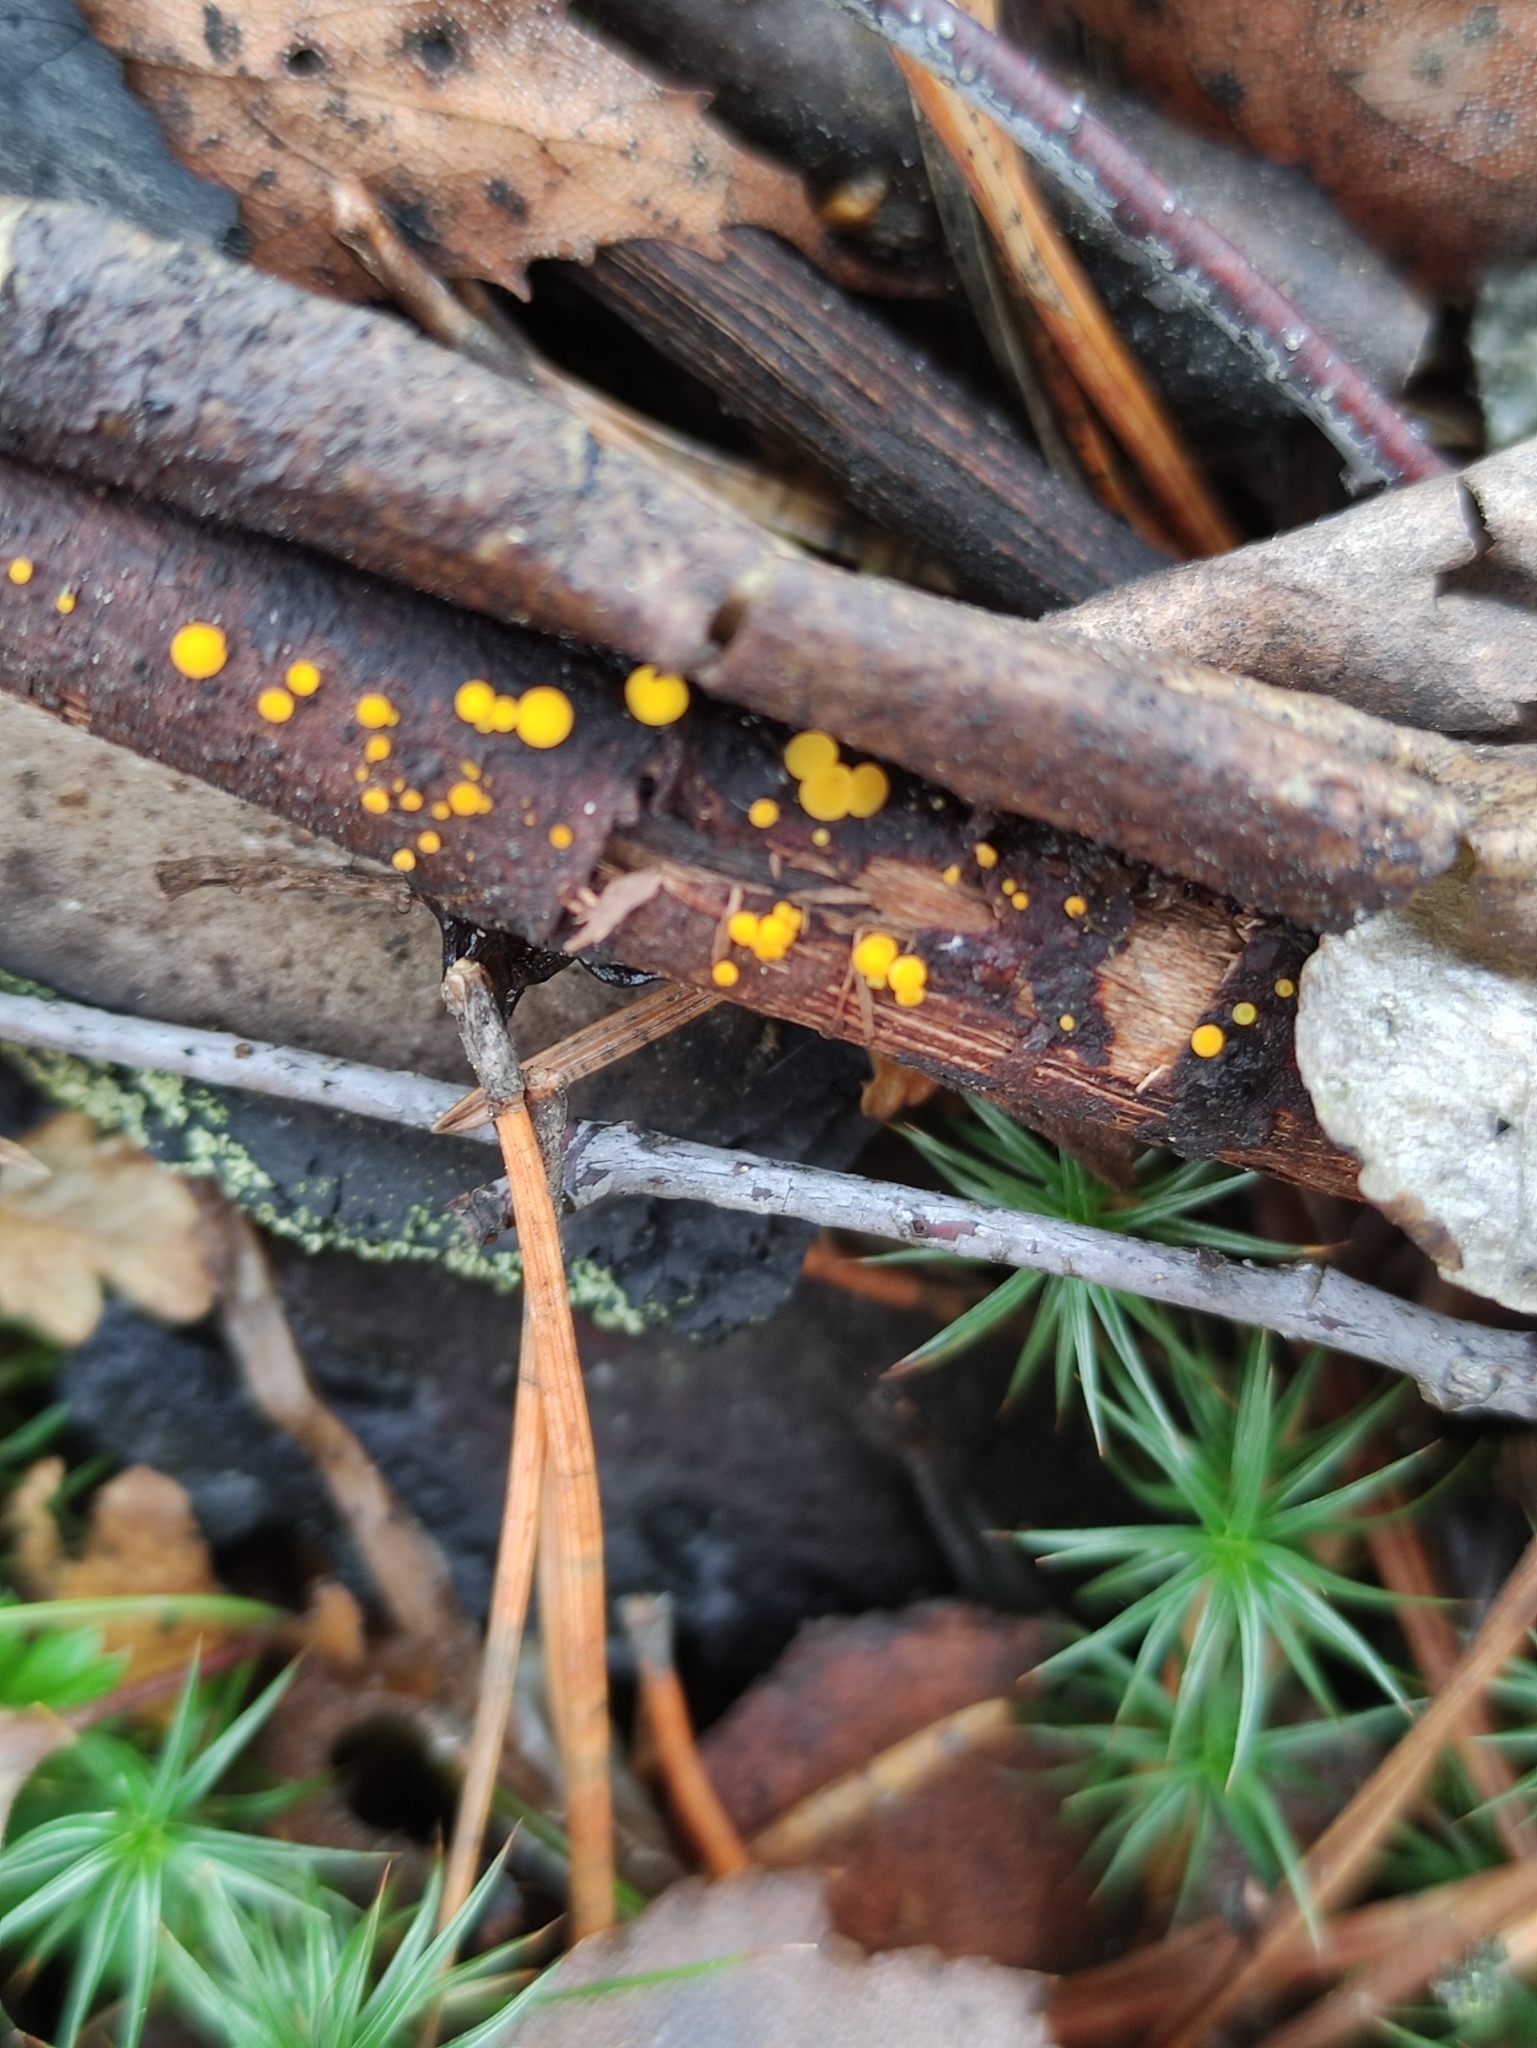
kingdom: Fungi
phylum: Ascomycota
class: Leotiomycetes
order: Helotiales
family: Pezizellaceae
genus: Calycina
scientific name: Calycina citrina
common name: Yellow fairy cups
